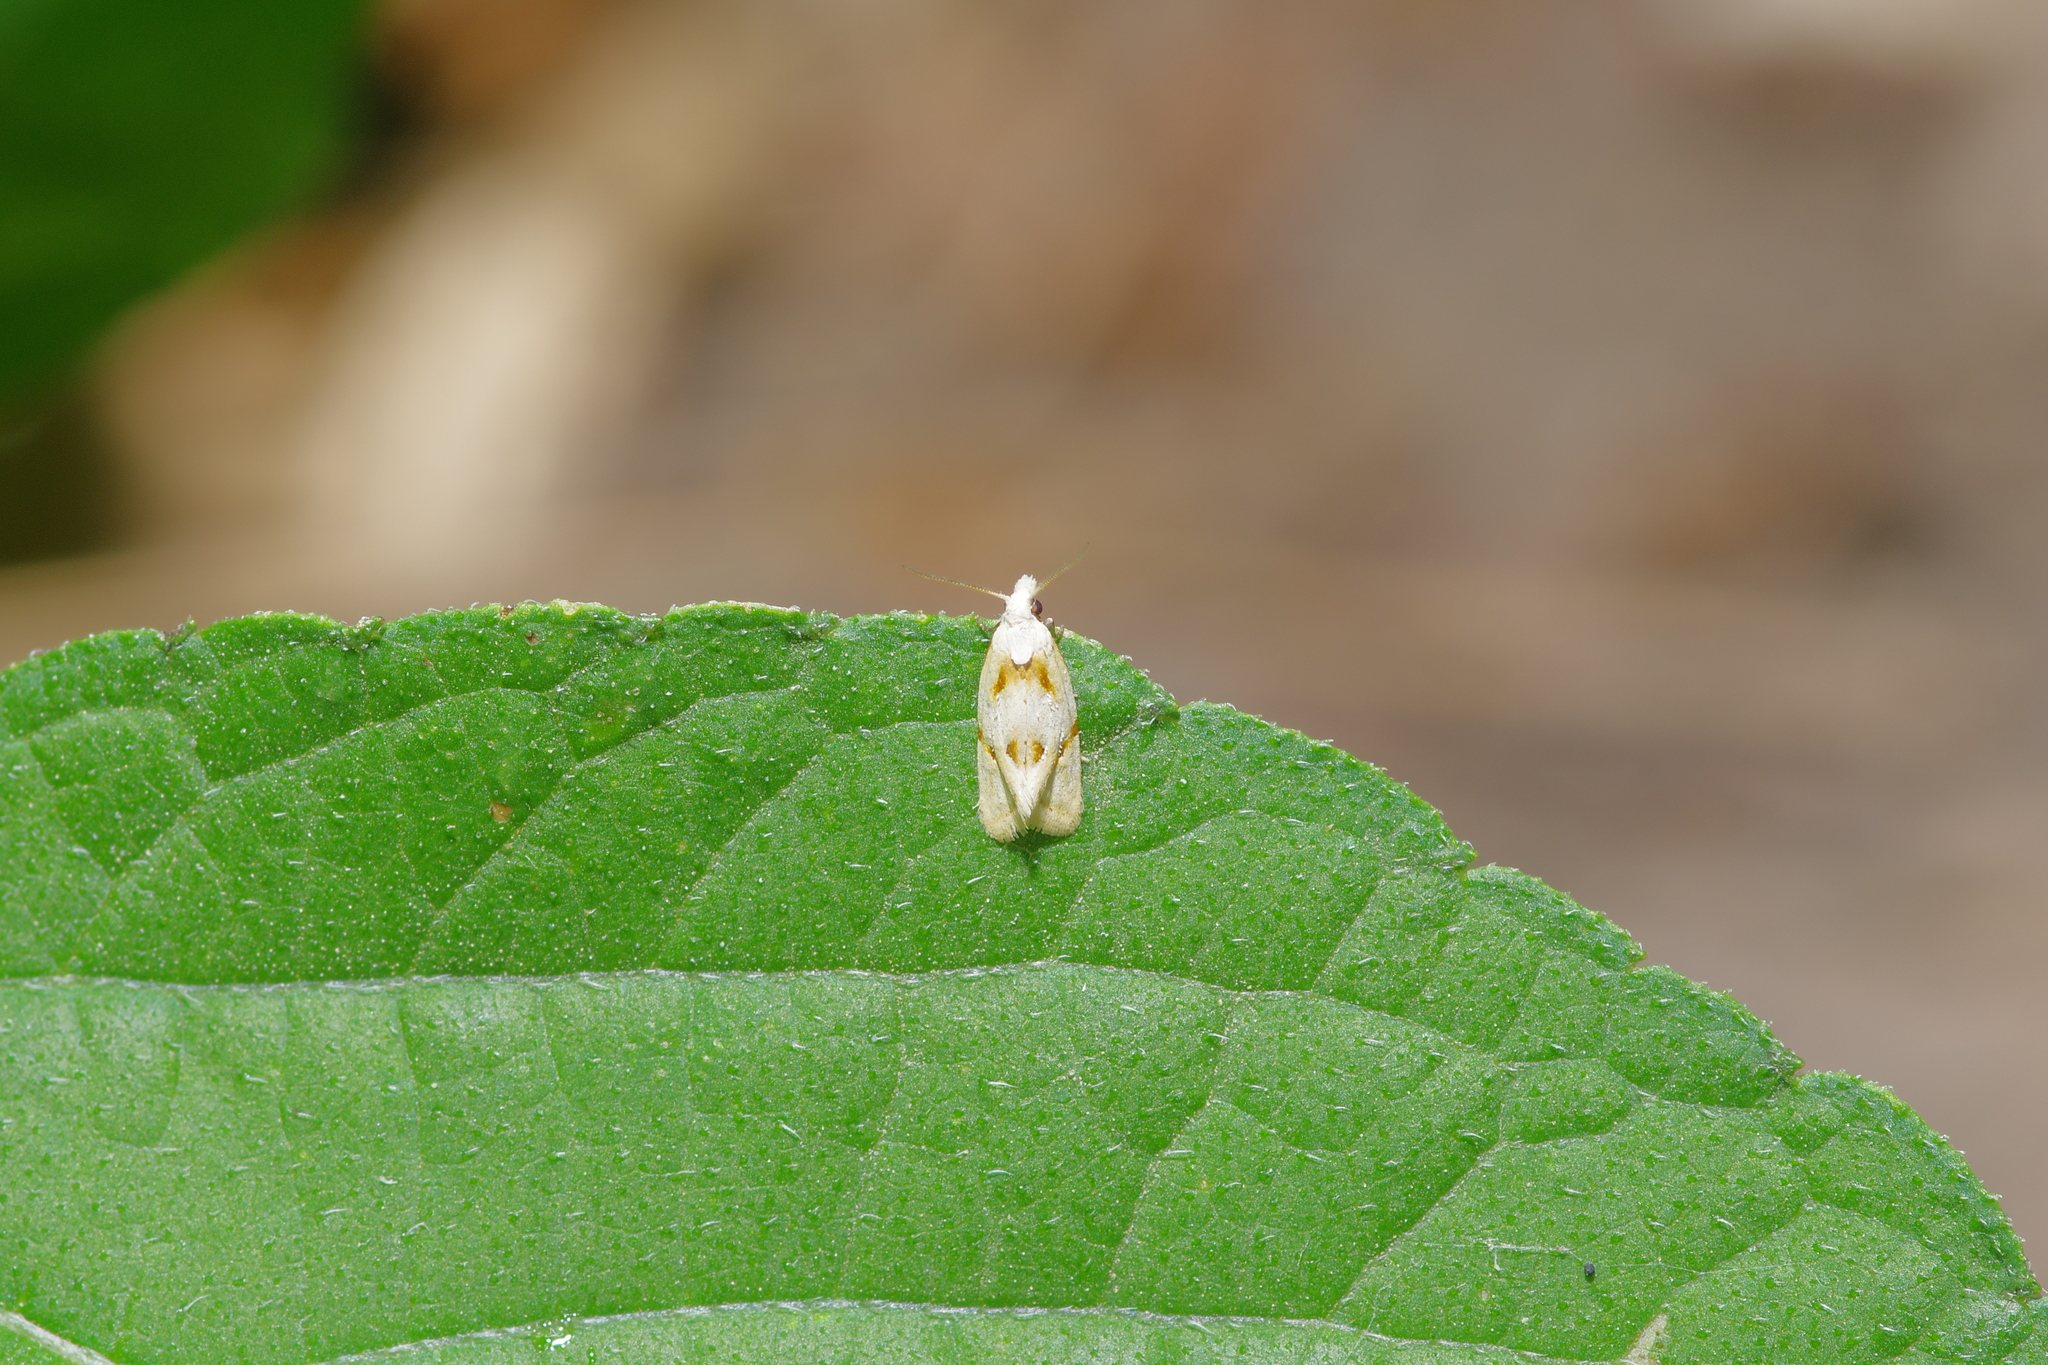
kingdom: Animalia
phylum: Arthropoda
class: Insecta
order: Lepidoptera
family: Tortricidae
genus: Aethes
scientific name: Aethes seriatana
